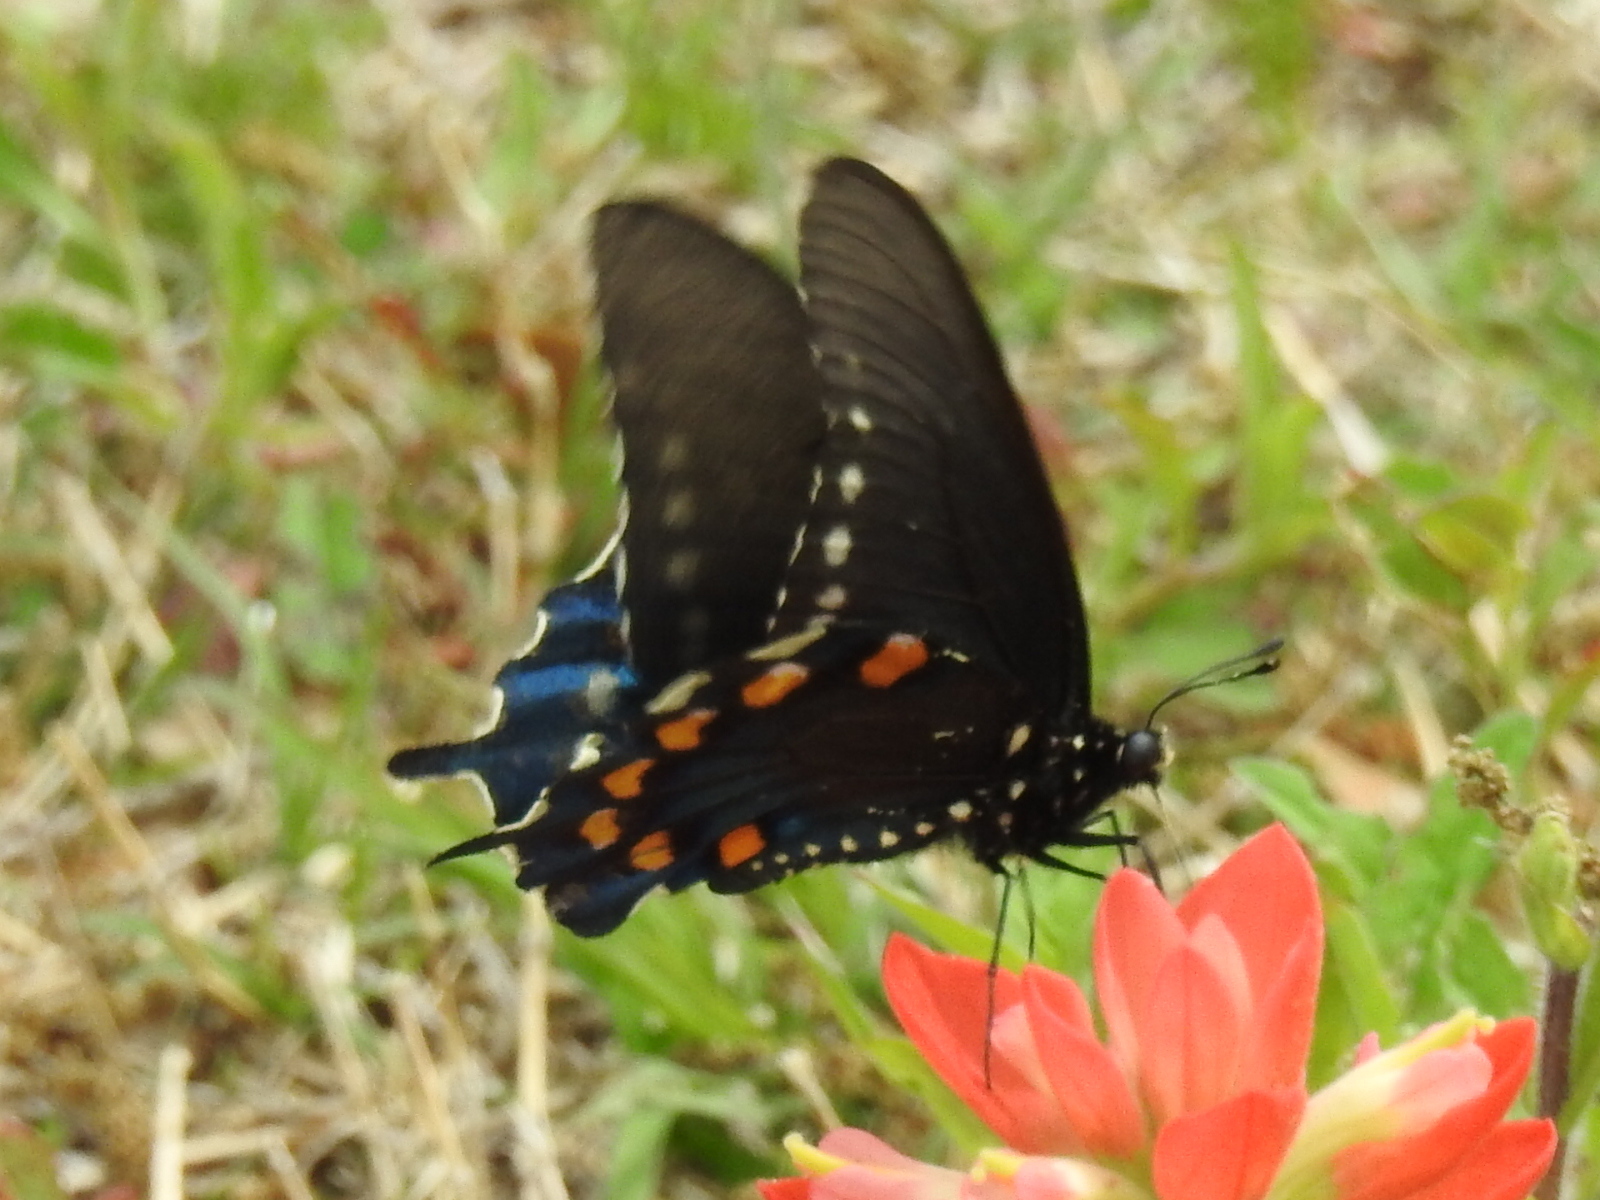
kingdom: Animalia
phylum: Arthropoda
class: Insecta
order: Lepidoptera
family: Papilionidae
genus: Battus
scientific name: Battus philenor
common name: Pipevine swallowtail
